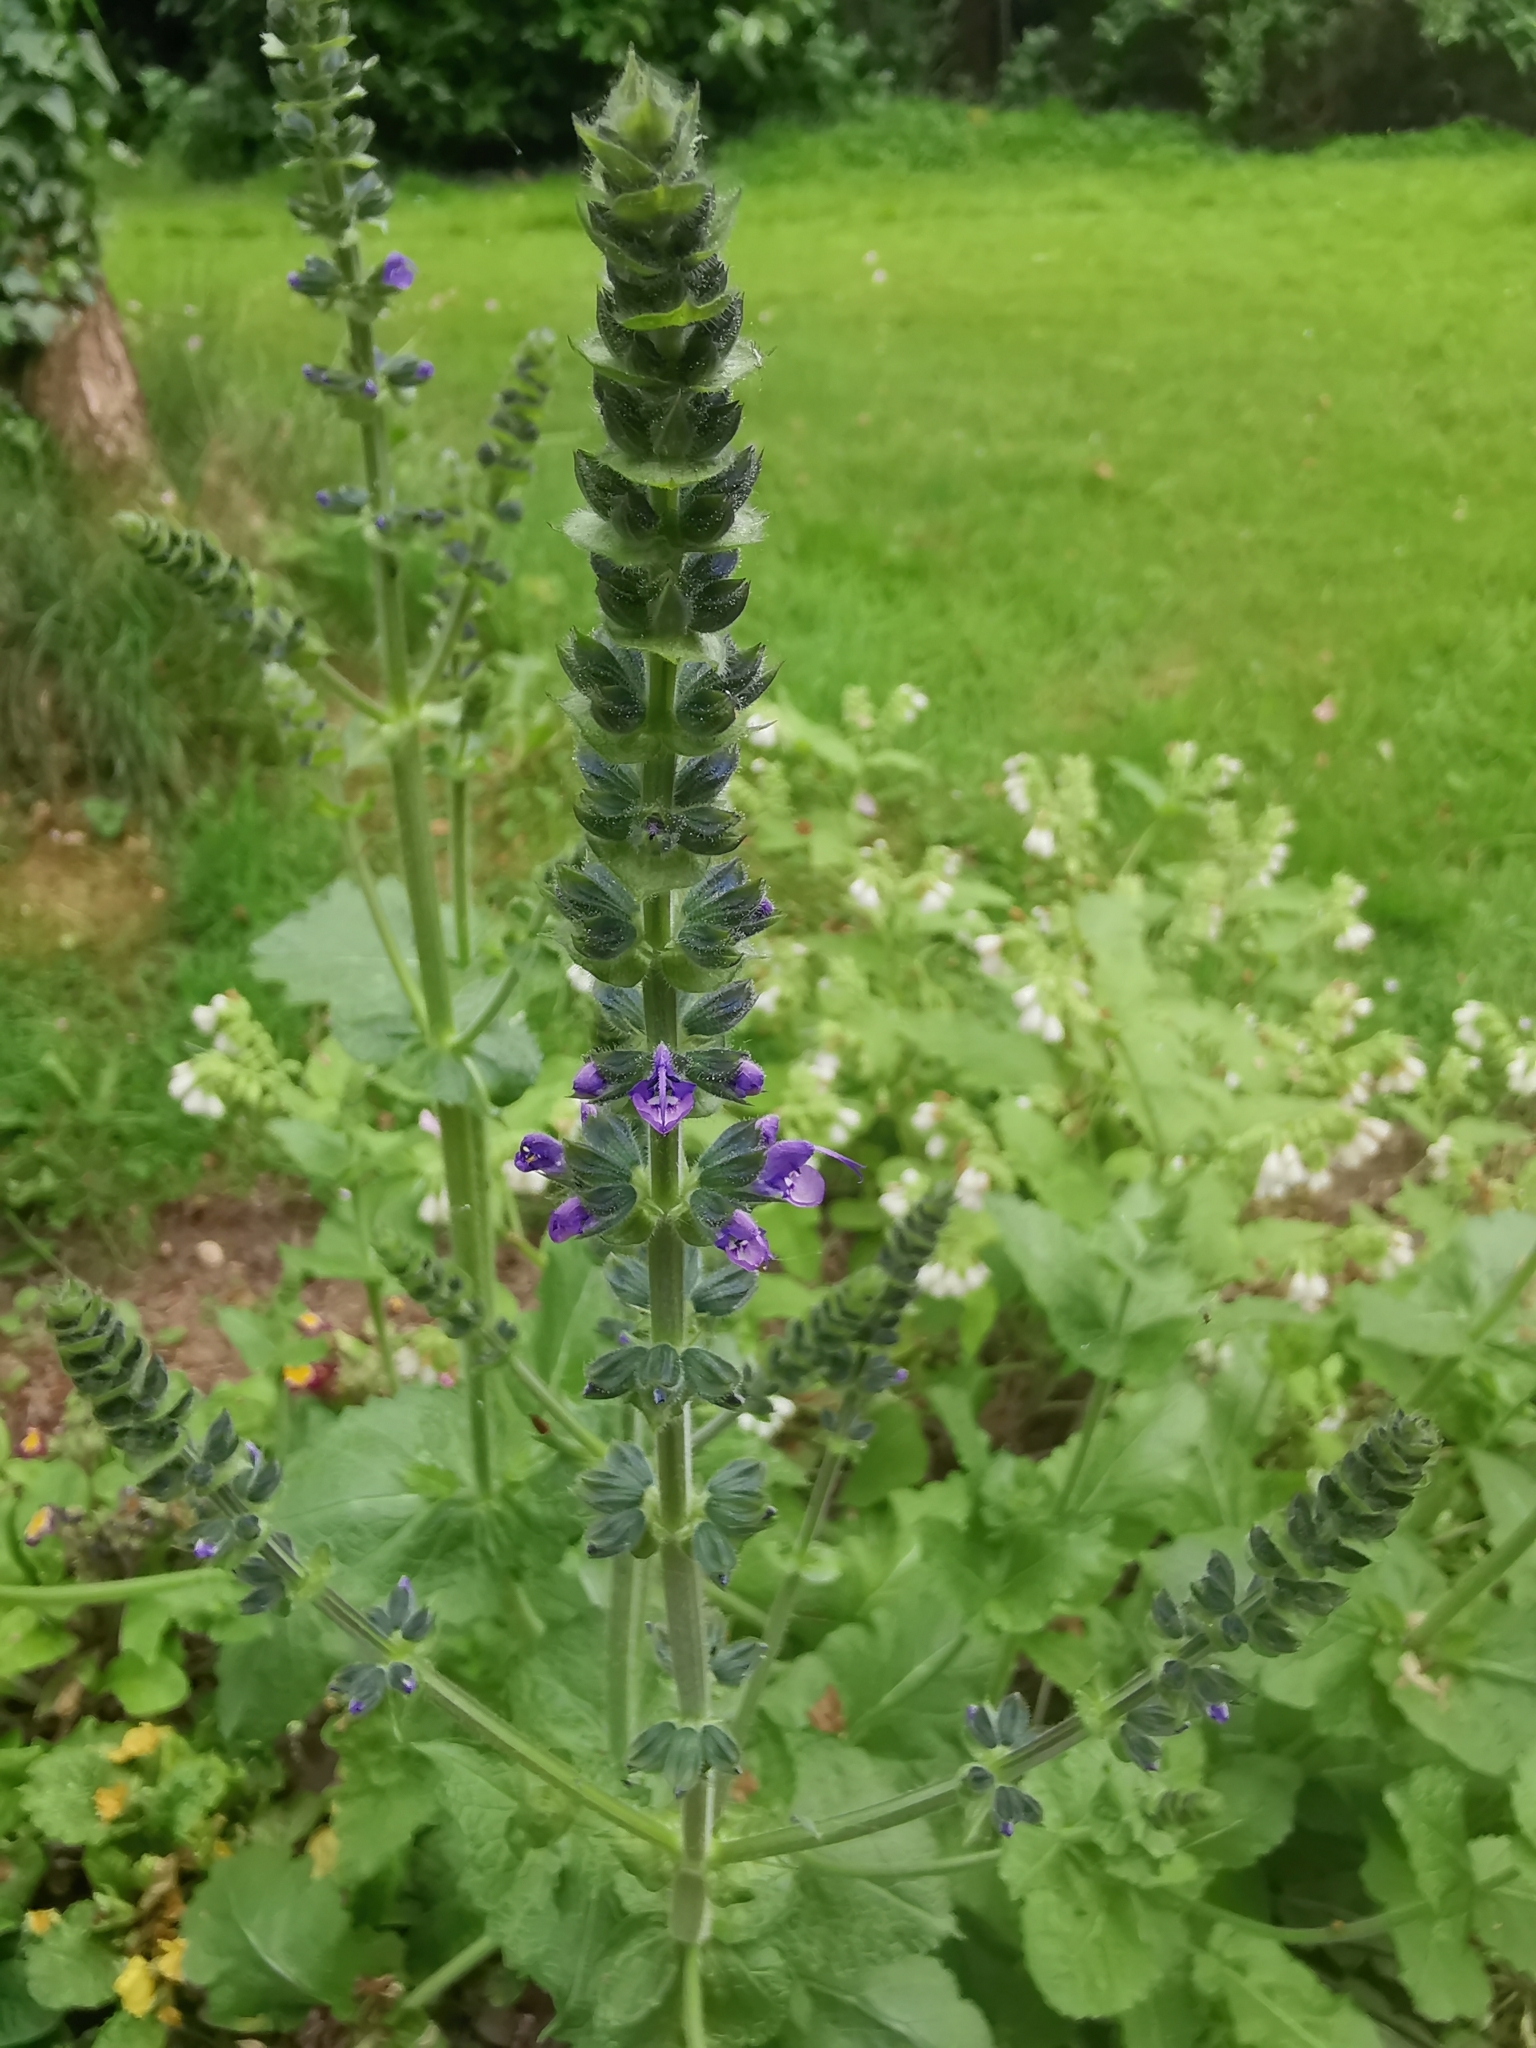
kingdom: Plantae
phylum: Tracheophyta
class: Magnoliopsida
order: Lamiales
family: Lamiaceae
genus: Salvia
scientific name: Salvia verbenaca
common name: Wild clary
